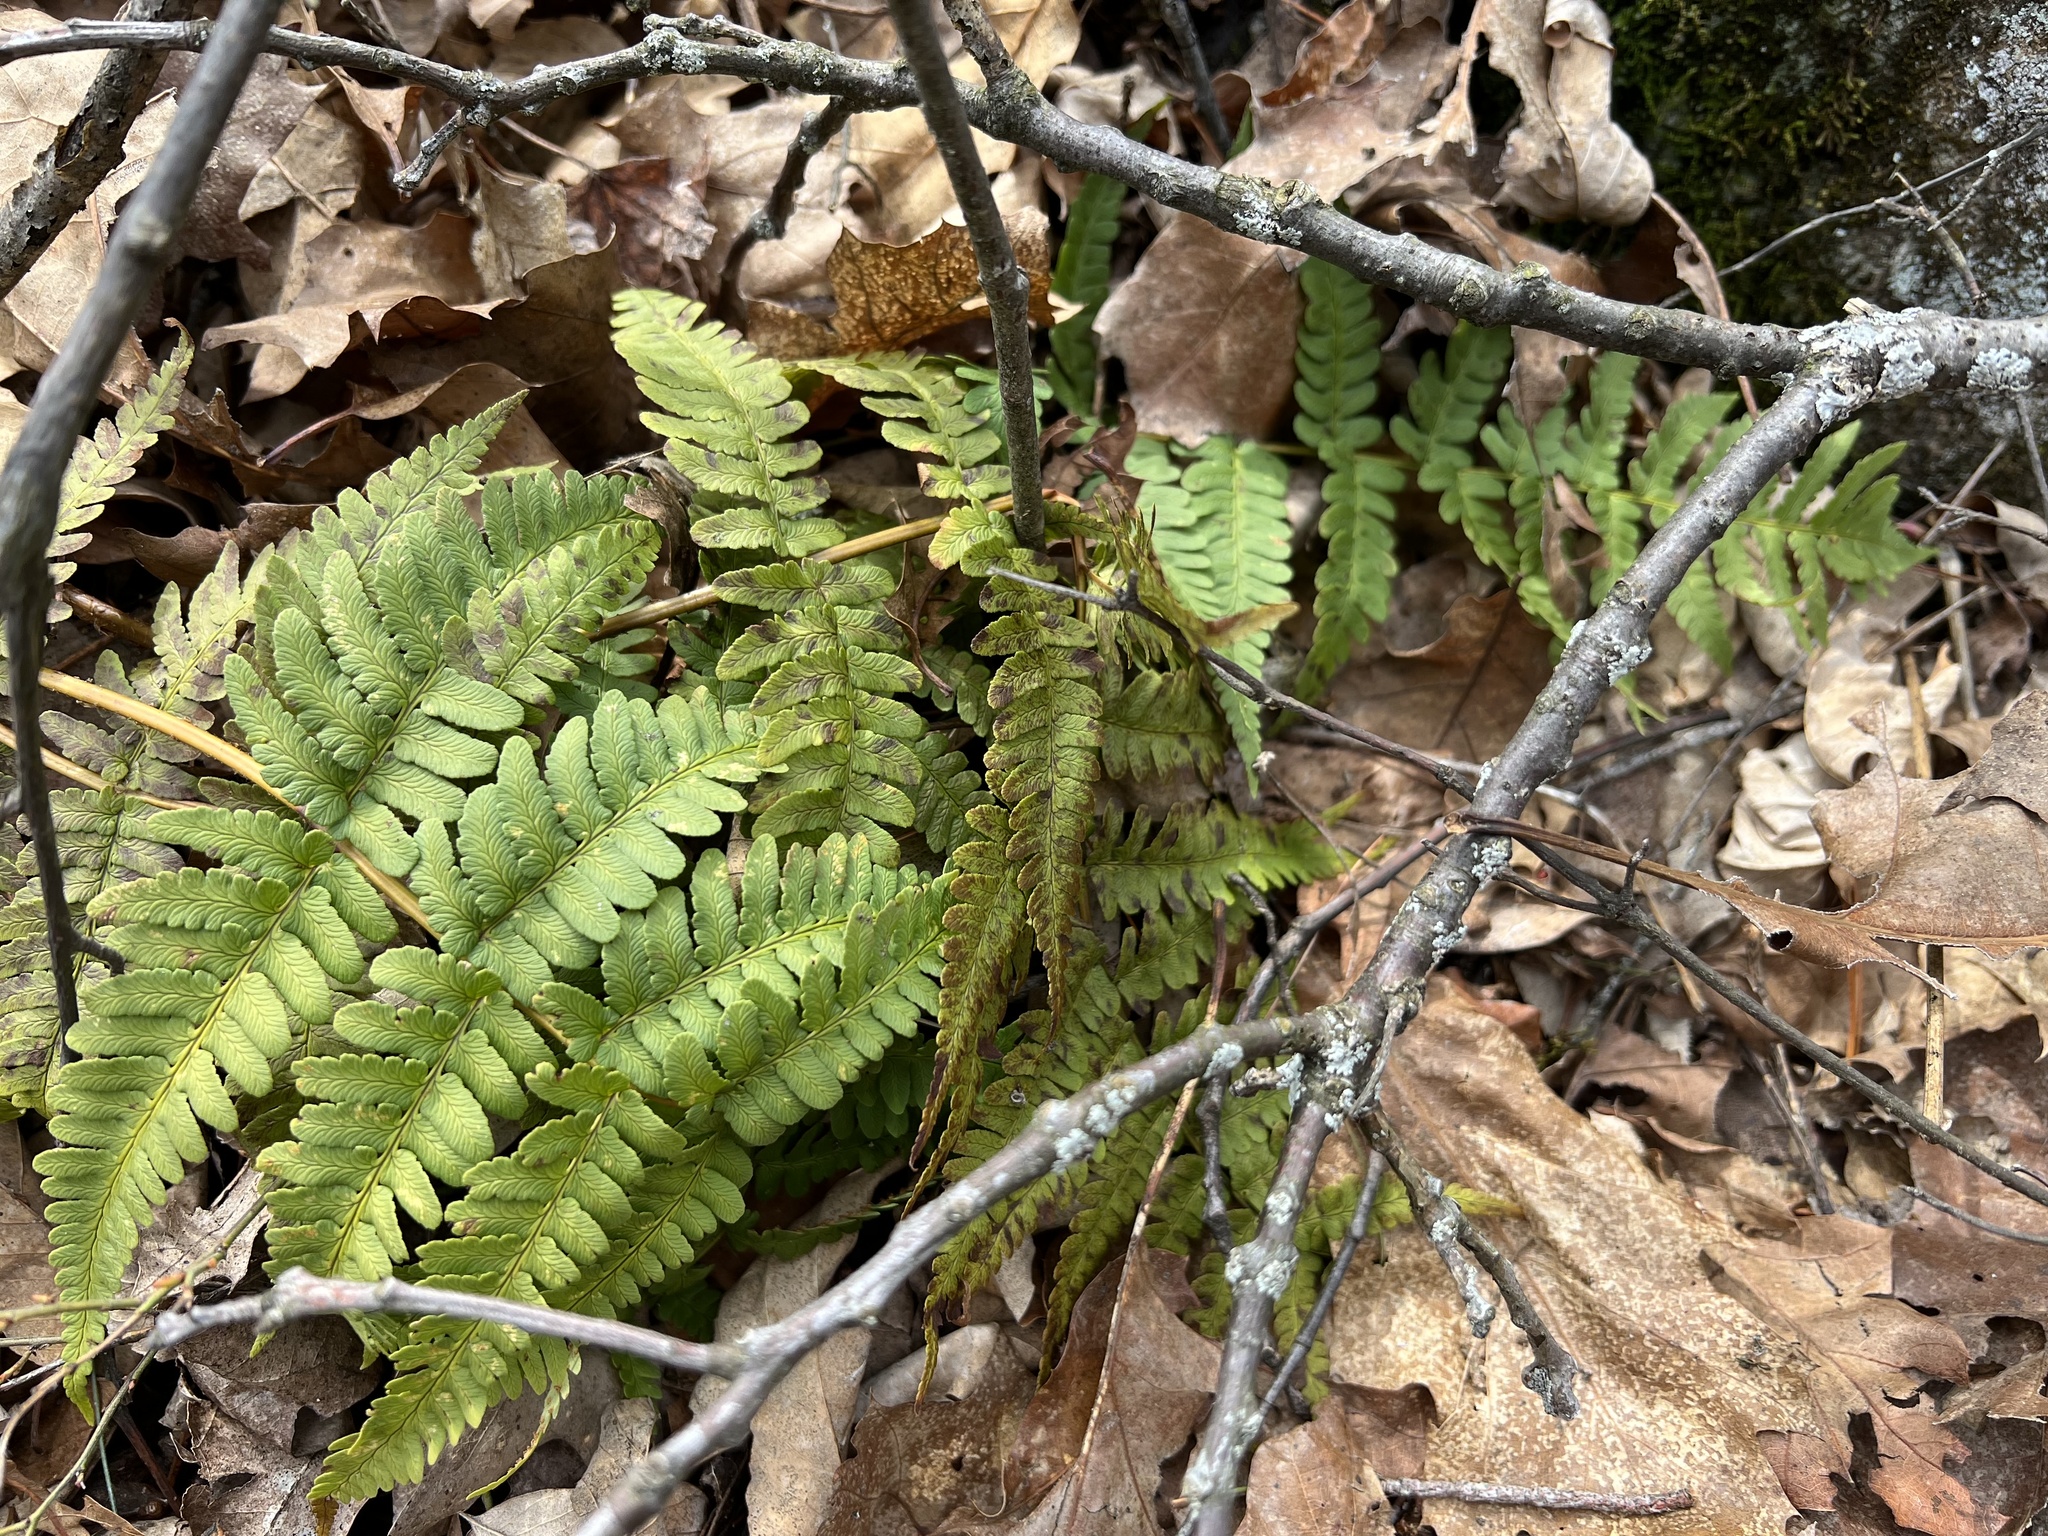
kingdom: Plantae
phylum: Tracheophyta
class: Polypodiopsida
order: Polypodiales
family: Dryopteridaceae
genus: Dryopteris
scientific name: Dryopteris marginalis
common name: Marginal wood fern
